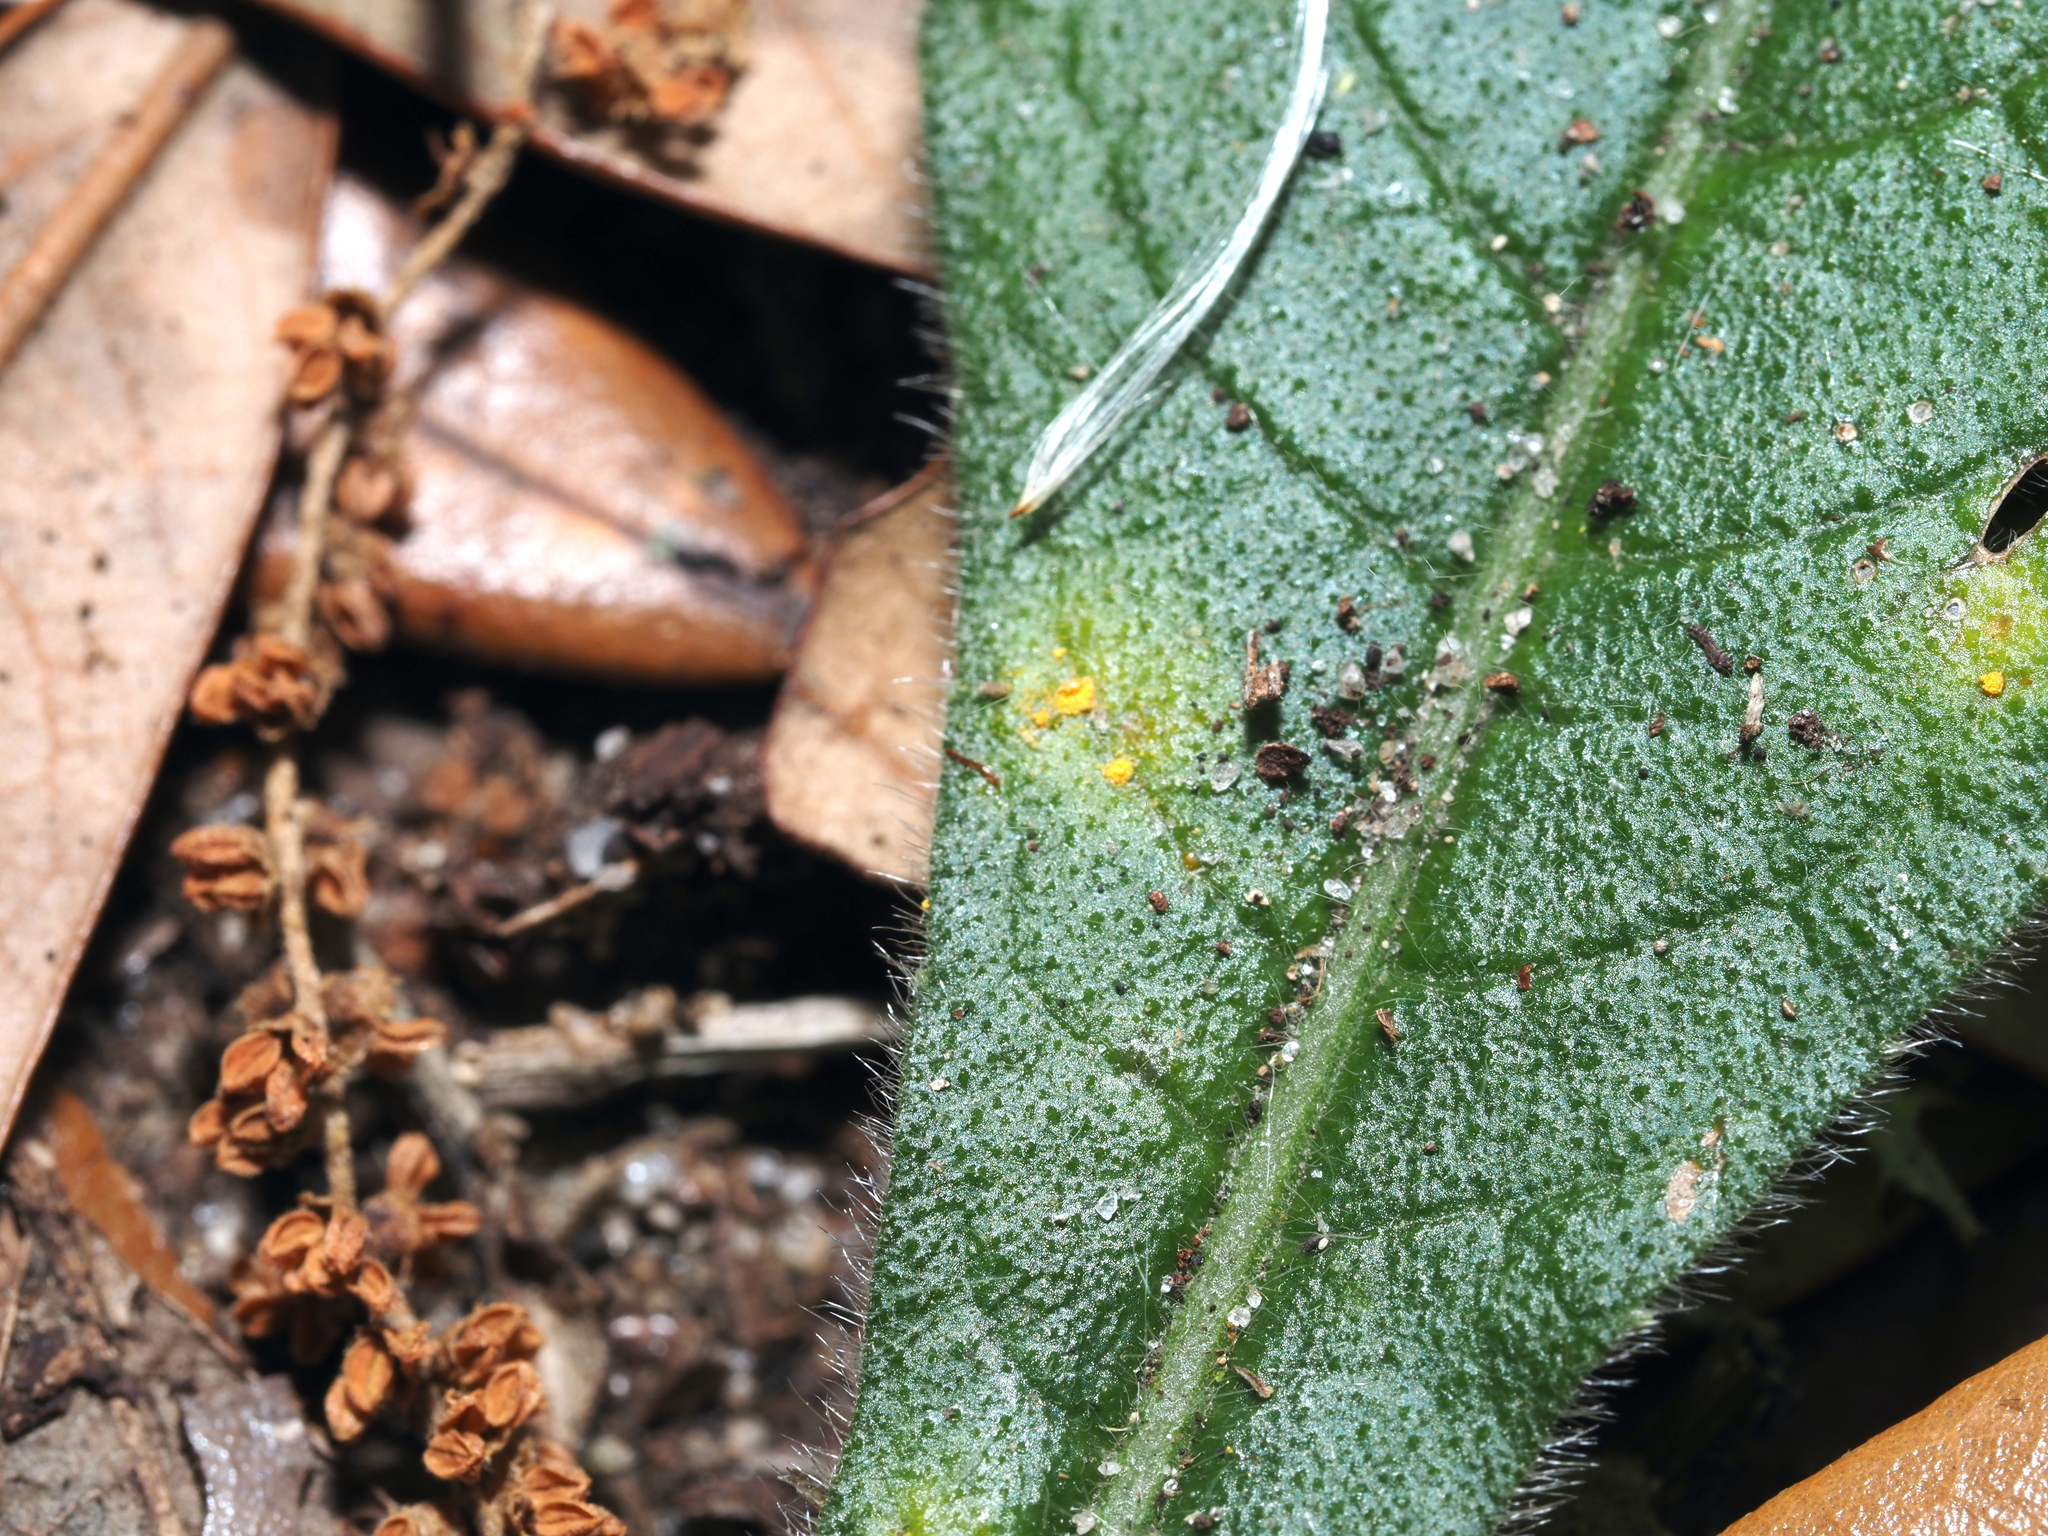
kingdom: Fungi
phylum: Basidiomycota
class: Pucciniomycetes
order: Pucciniales
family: Coleosporiaceae
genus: Coleosporium
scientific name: Coleosporium elephantopodis
